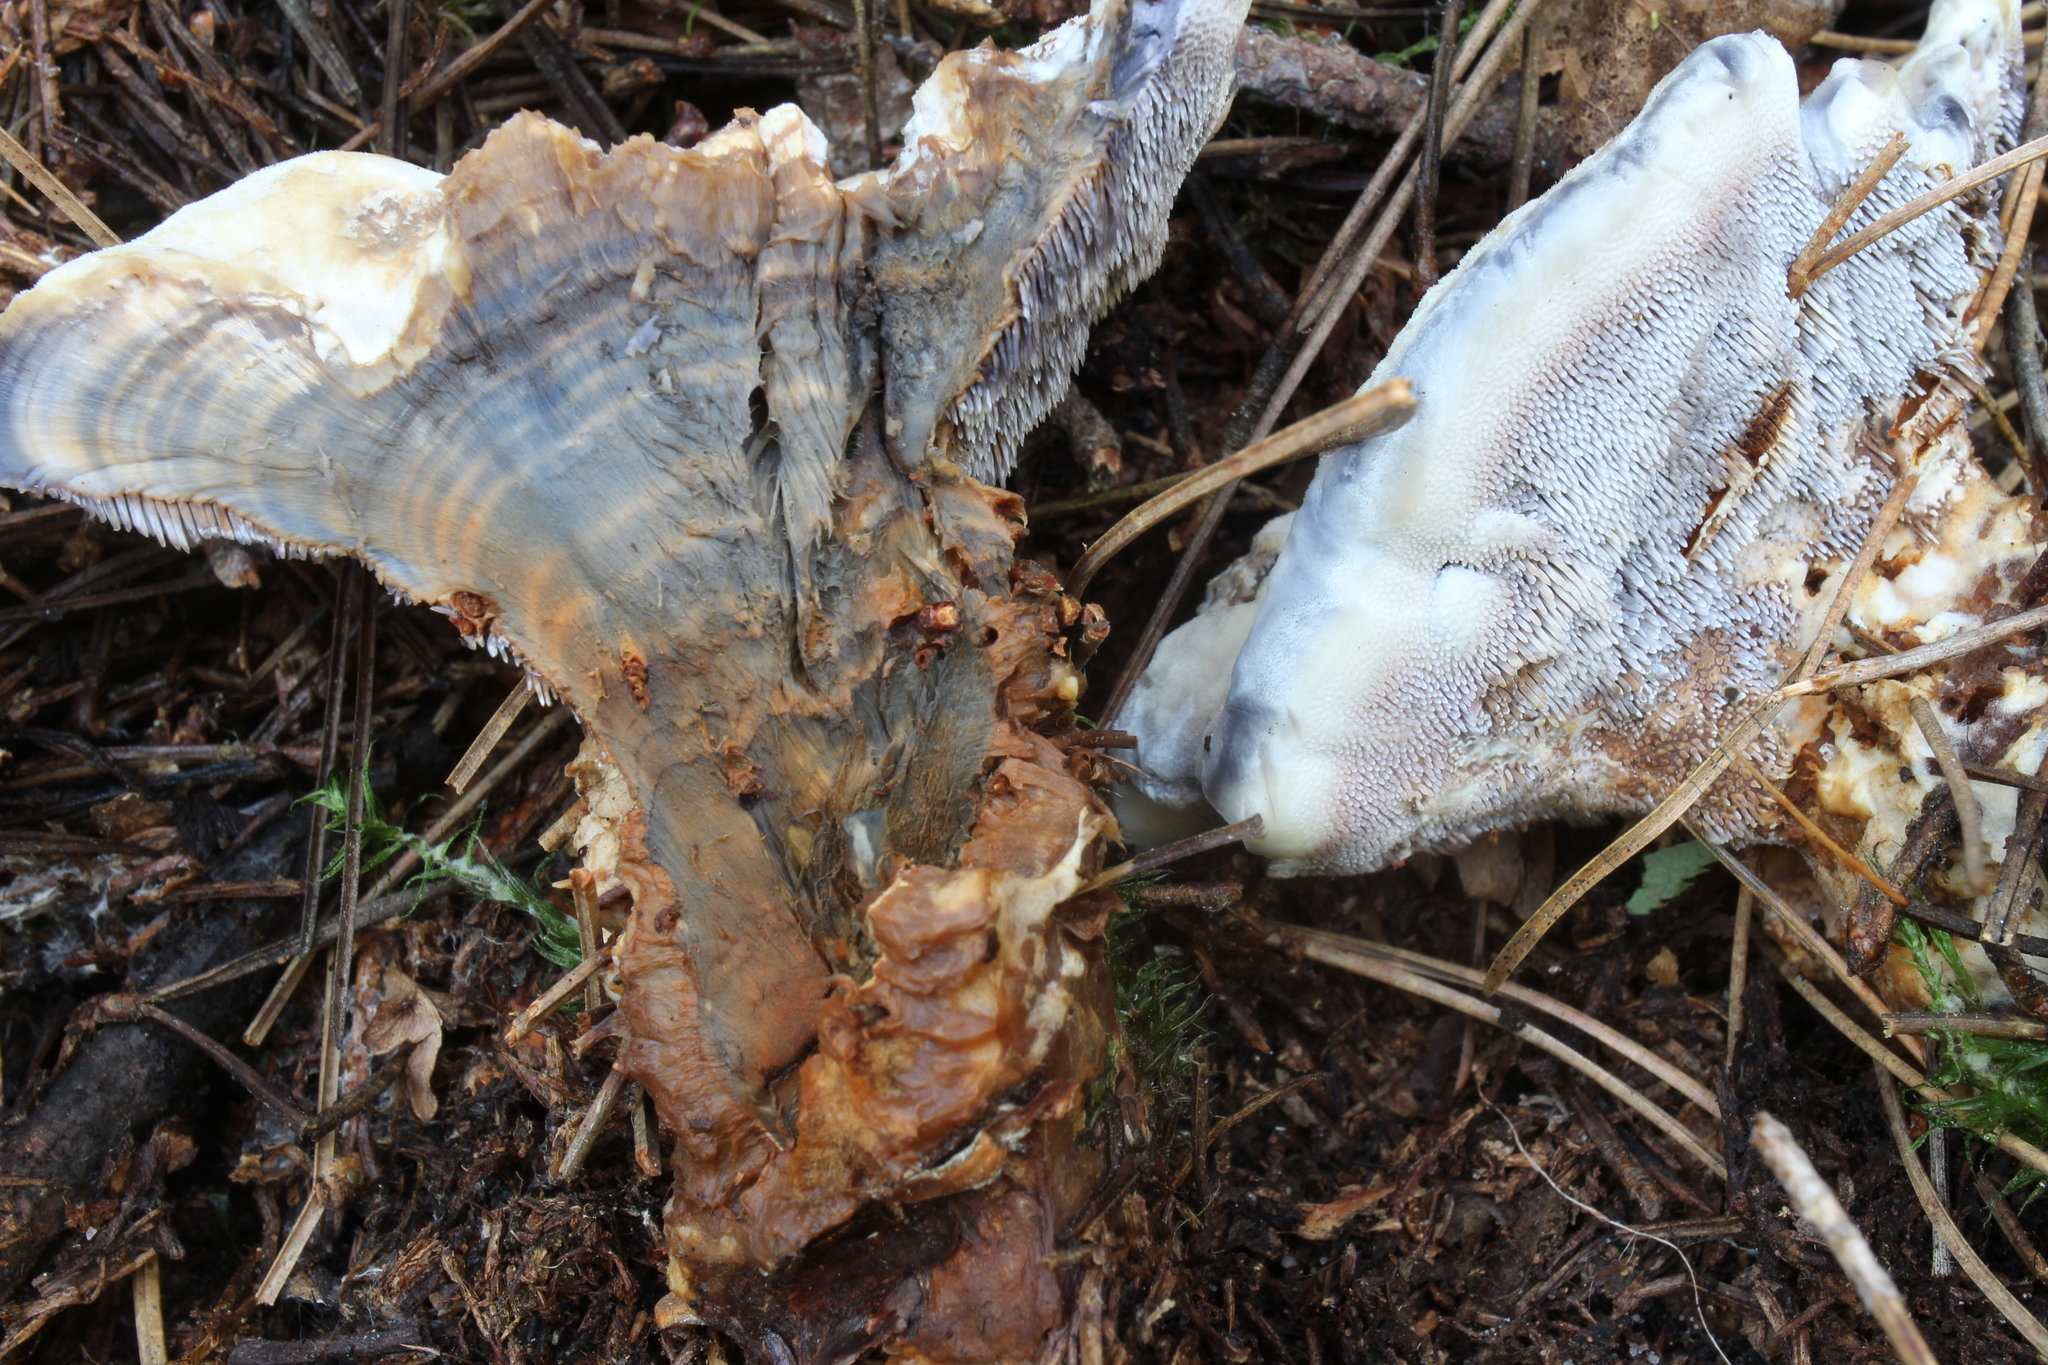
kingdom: Fungi
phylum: Basidiomycota
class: Agaricomycetes
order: Thelephorales
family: Bankeraceae
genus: Hydnellum
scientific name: Hydnellum caeruleum
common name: Blue corky spine fungus
